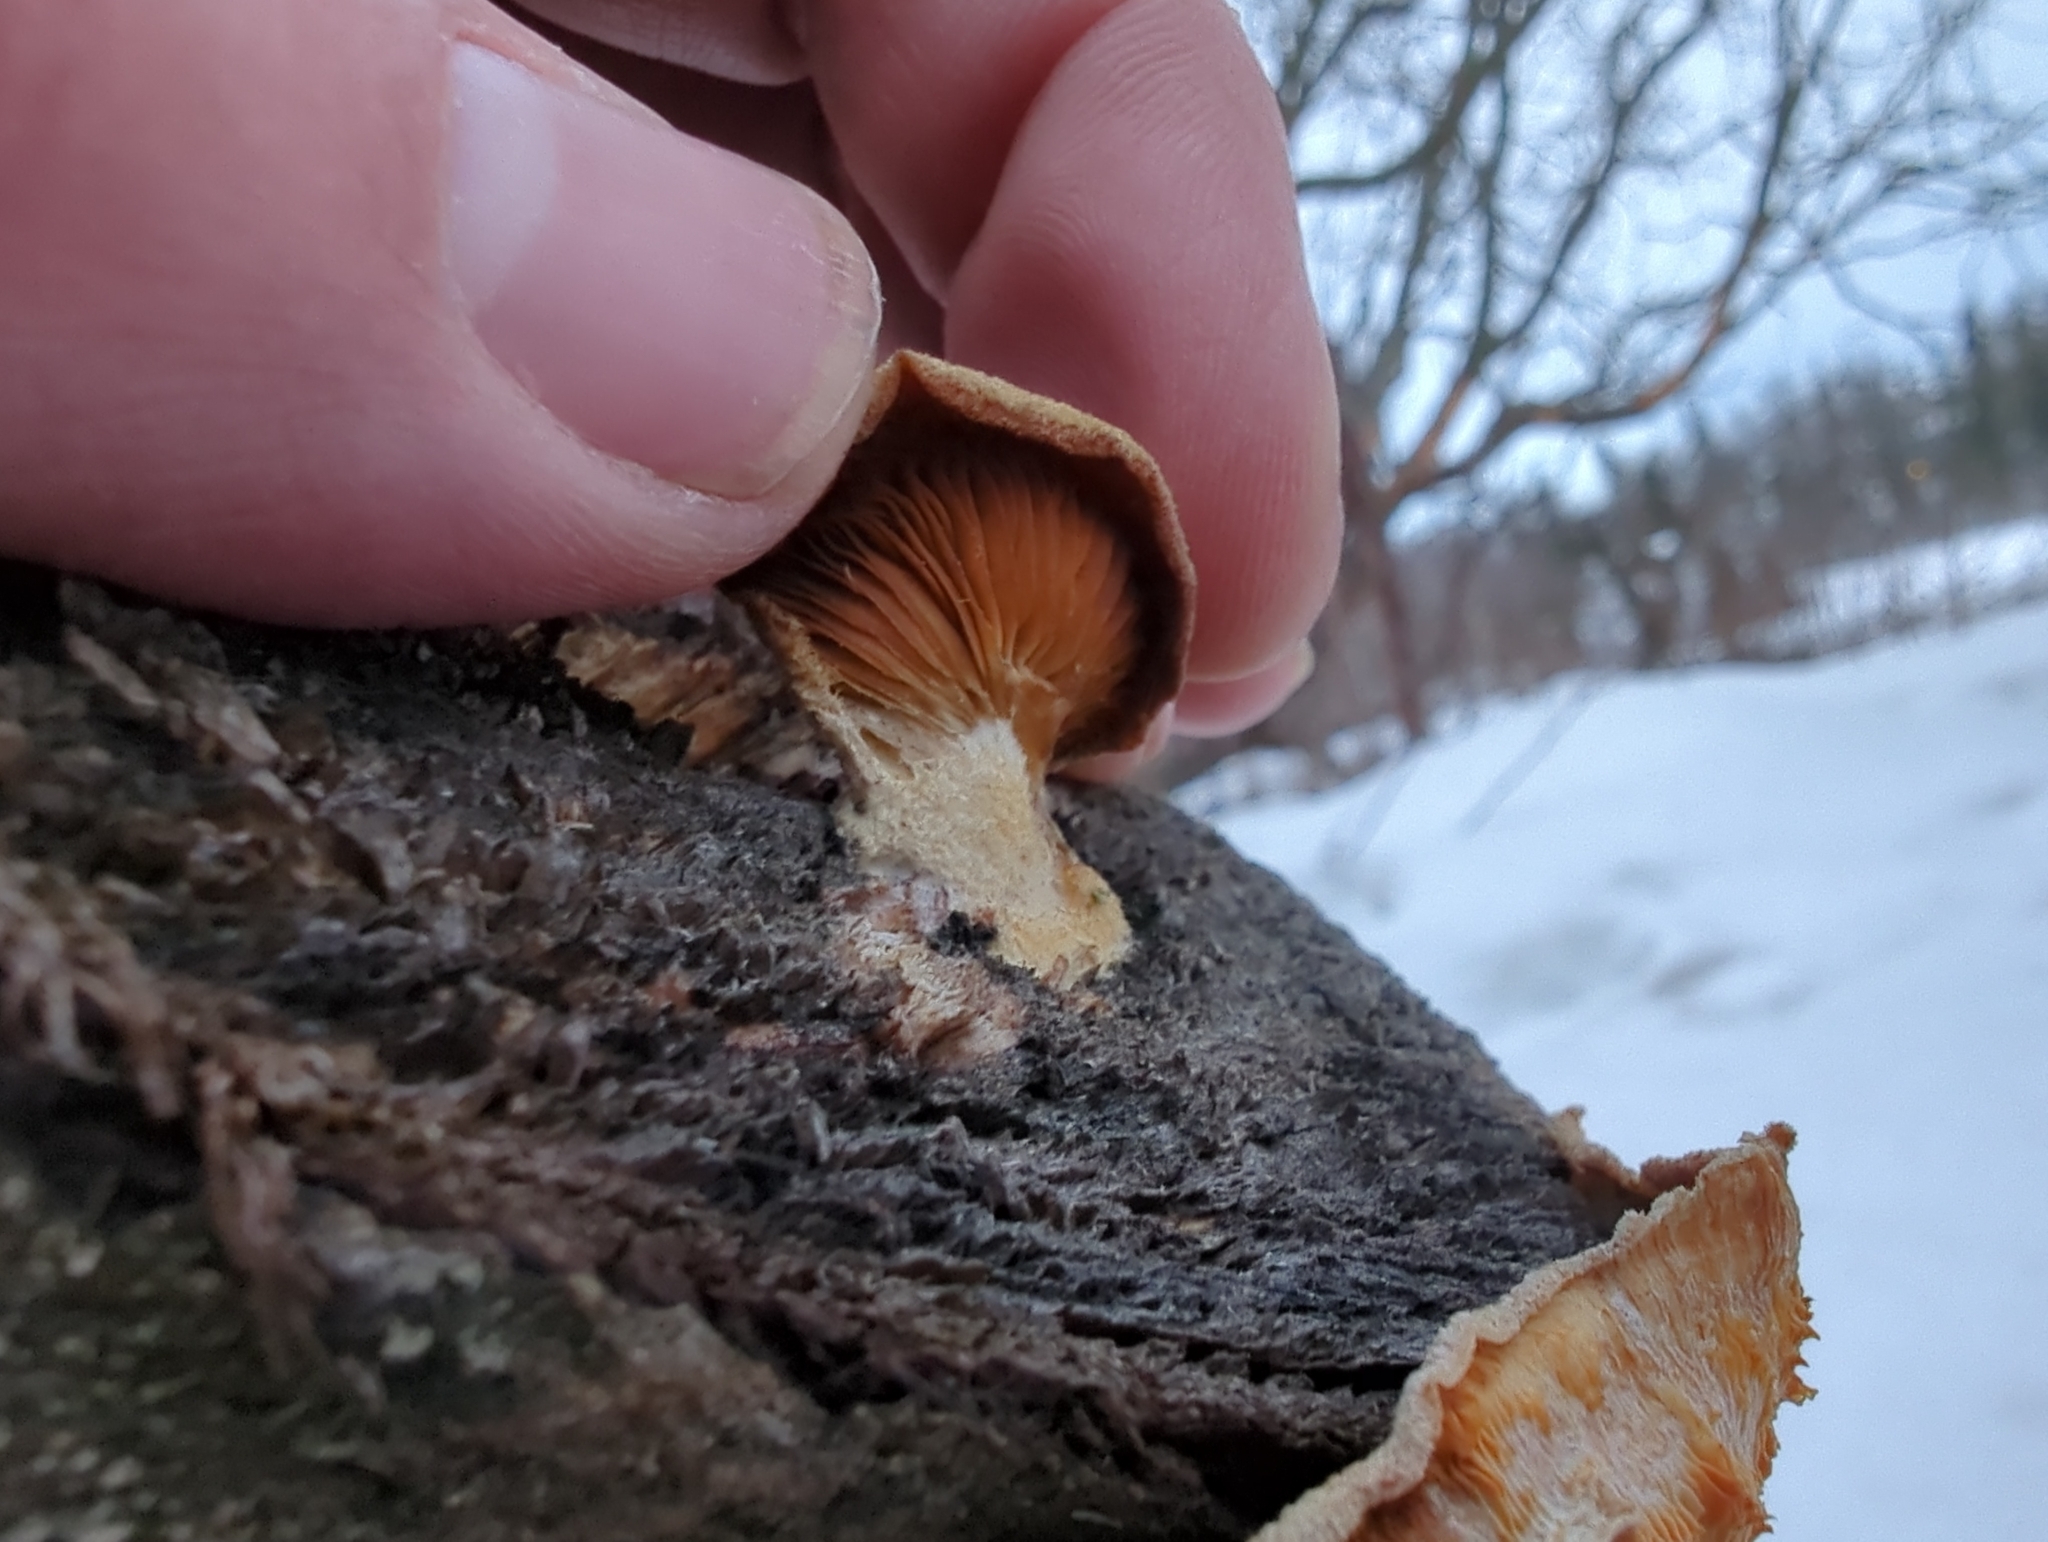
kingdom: Fungi
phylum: Basidiomycota
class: Agaricomycetes
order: Agaricales
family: Phyllotopsidaceae
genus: Phyllotopsis
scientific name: Phyllotopsis nidulans
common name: Orange mock oyster
